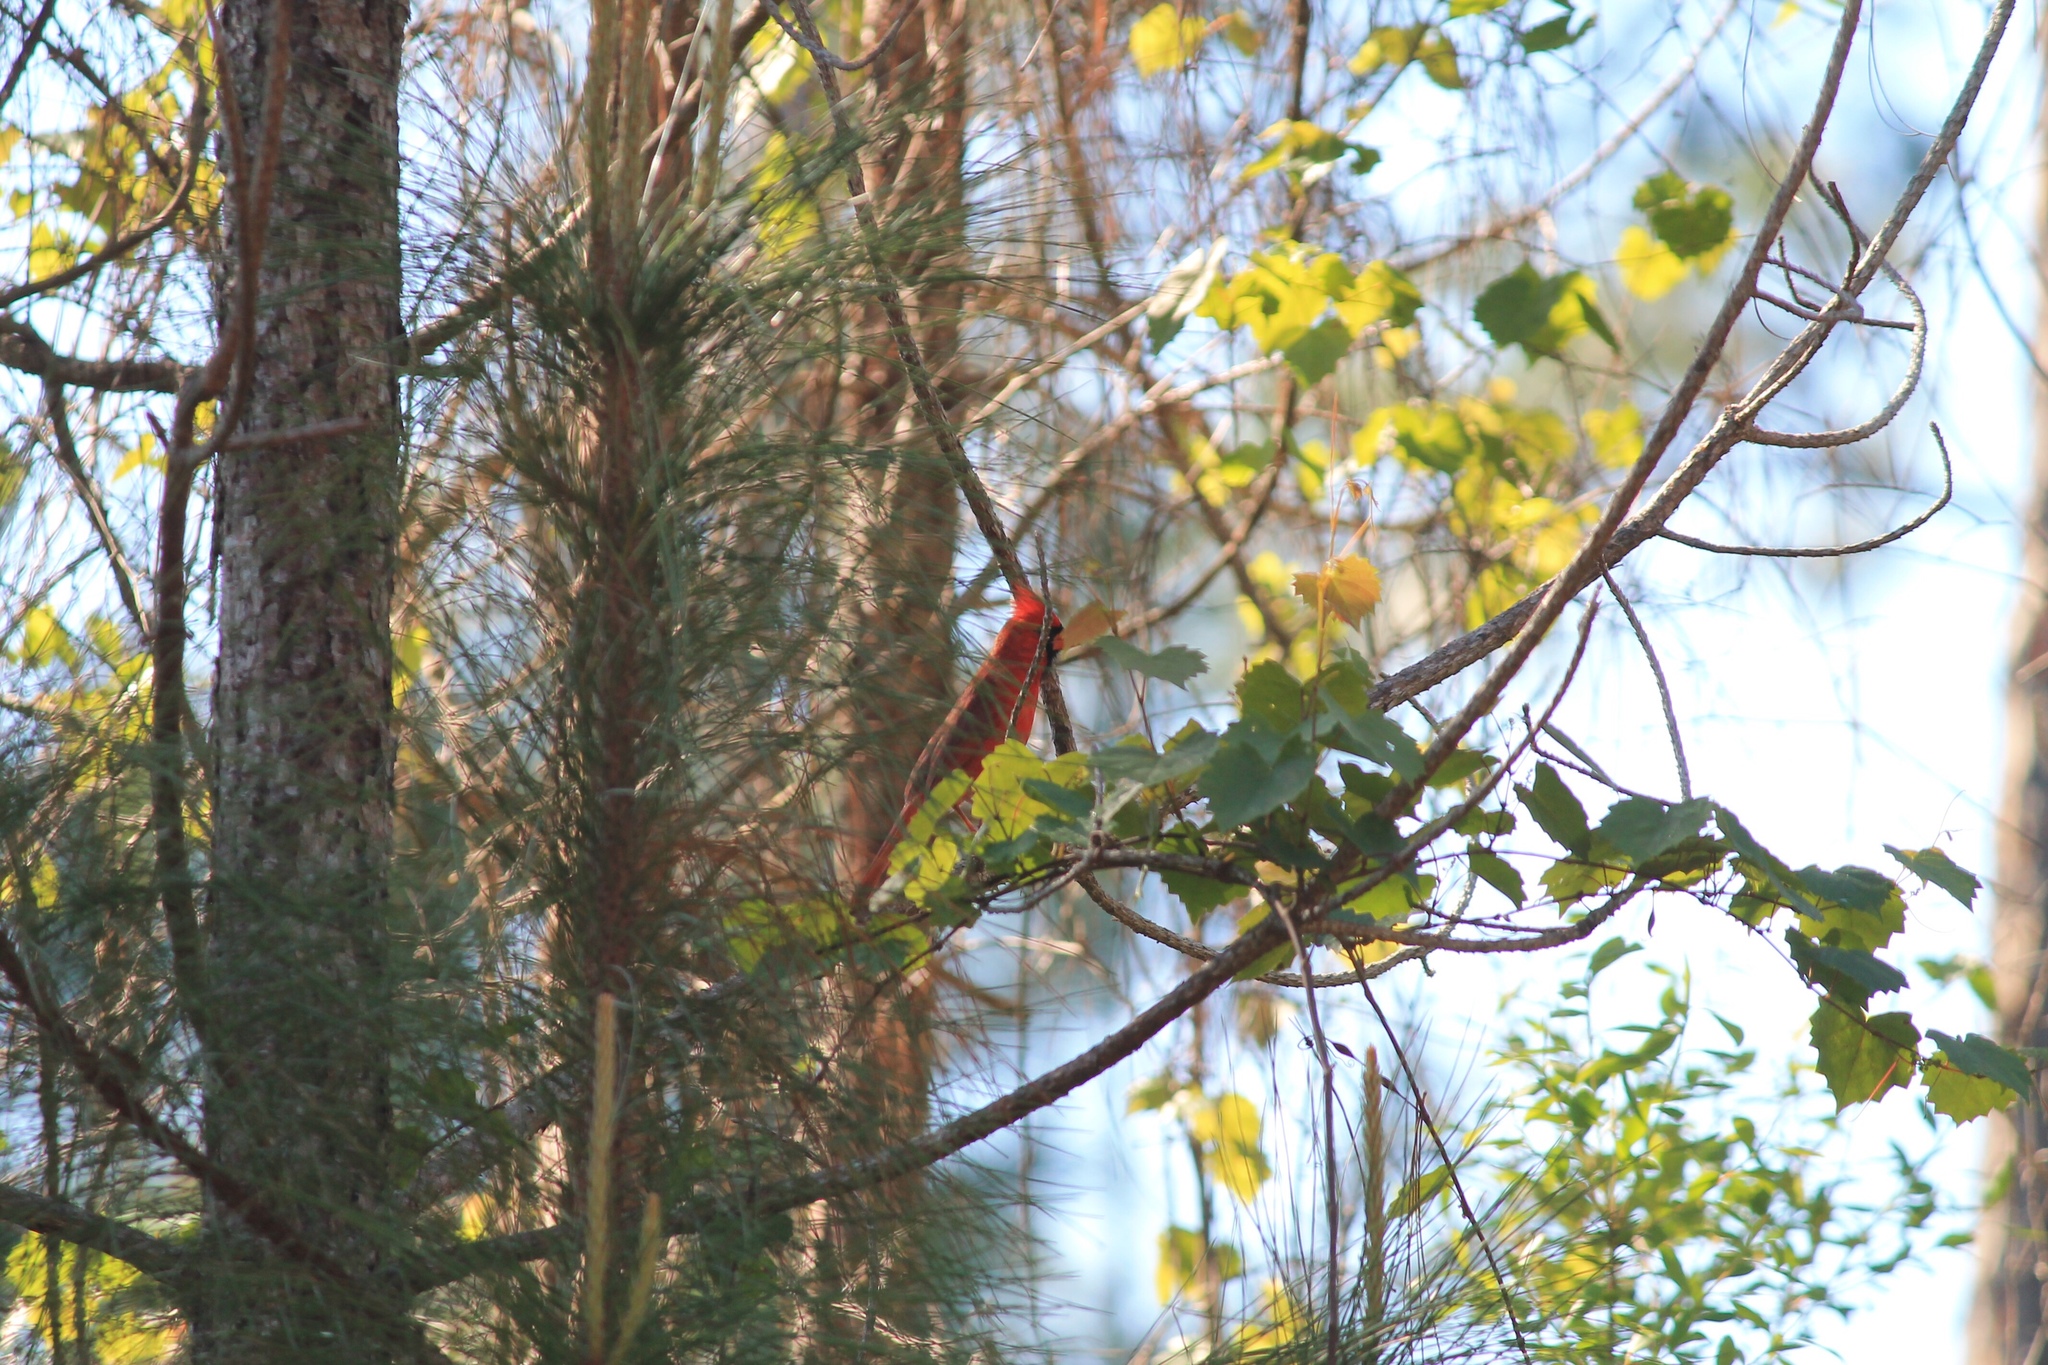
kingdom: Animalia
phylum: Chordata
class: Aves
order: Passeriformes
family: Cardinalidae
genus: Cardinalis
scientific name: Cardinalis cardinalis
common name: Northern cardinal
